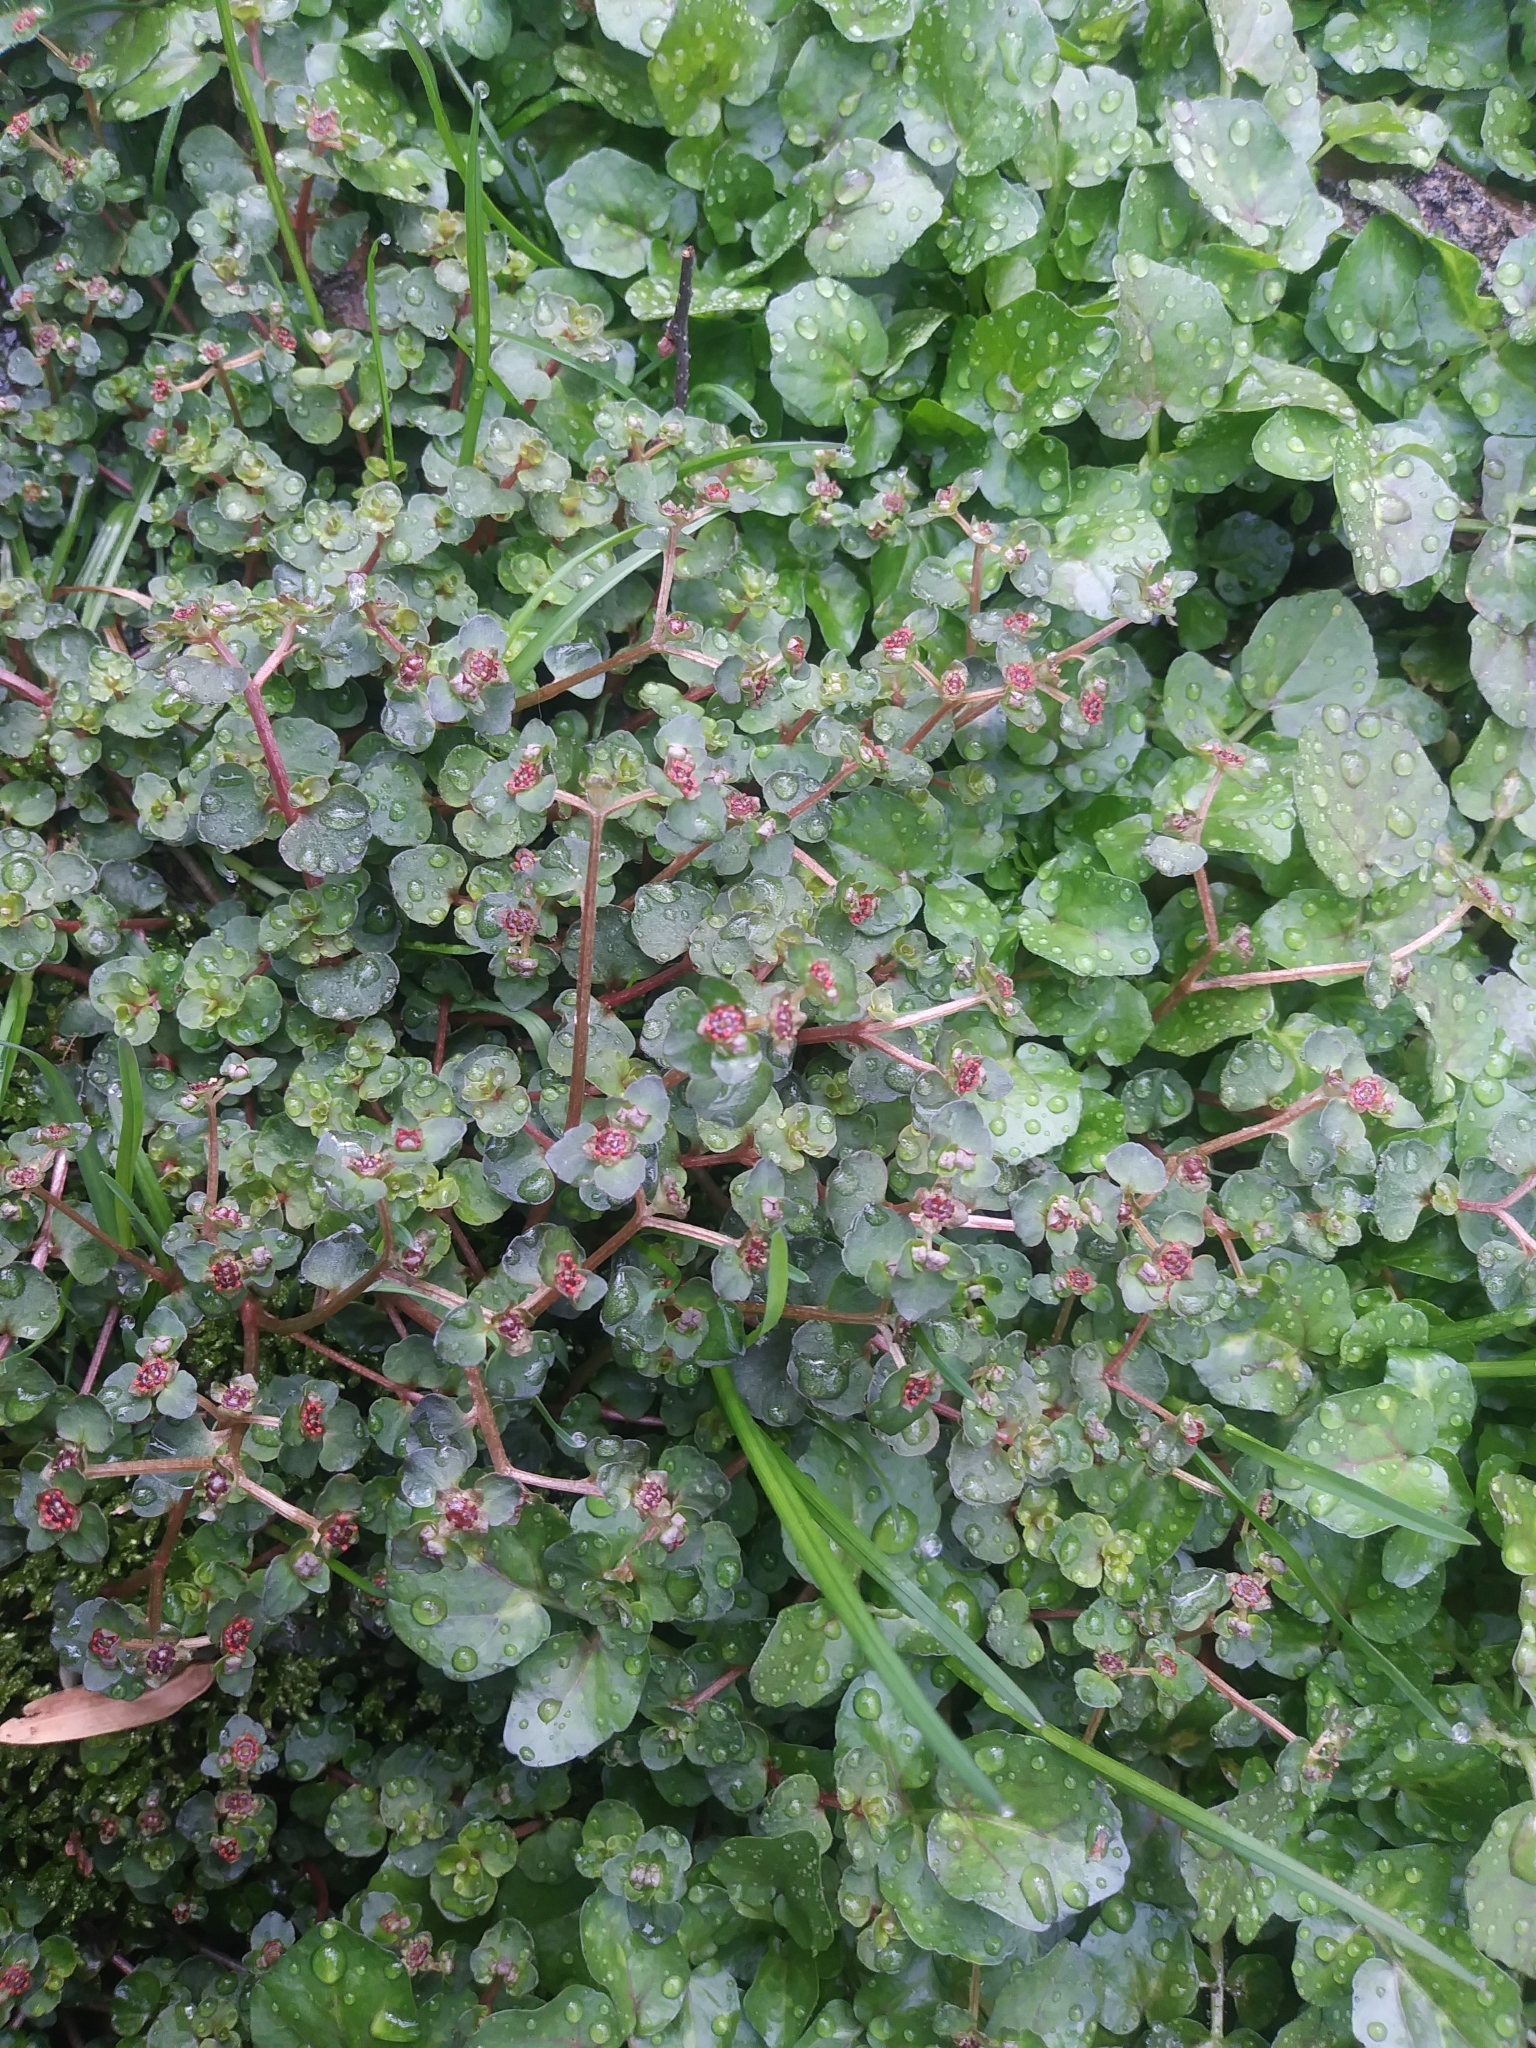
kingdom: Plantae
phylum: Tracheophyta
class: Magnoliopsida
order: Saxifragales
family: Saxifragaceae
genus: Chrysosplenium
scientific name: Chrysosplenium americanum
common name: American golden-saxifrage
